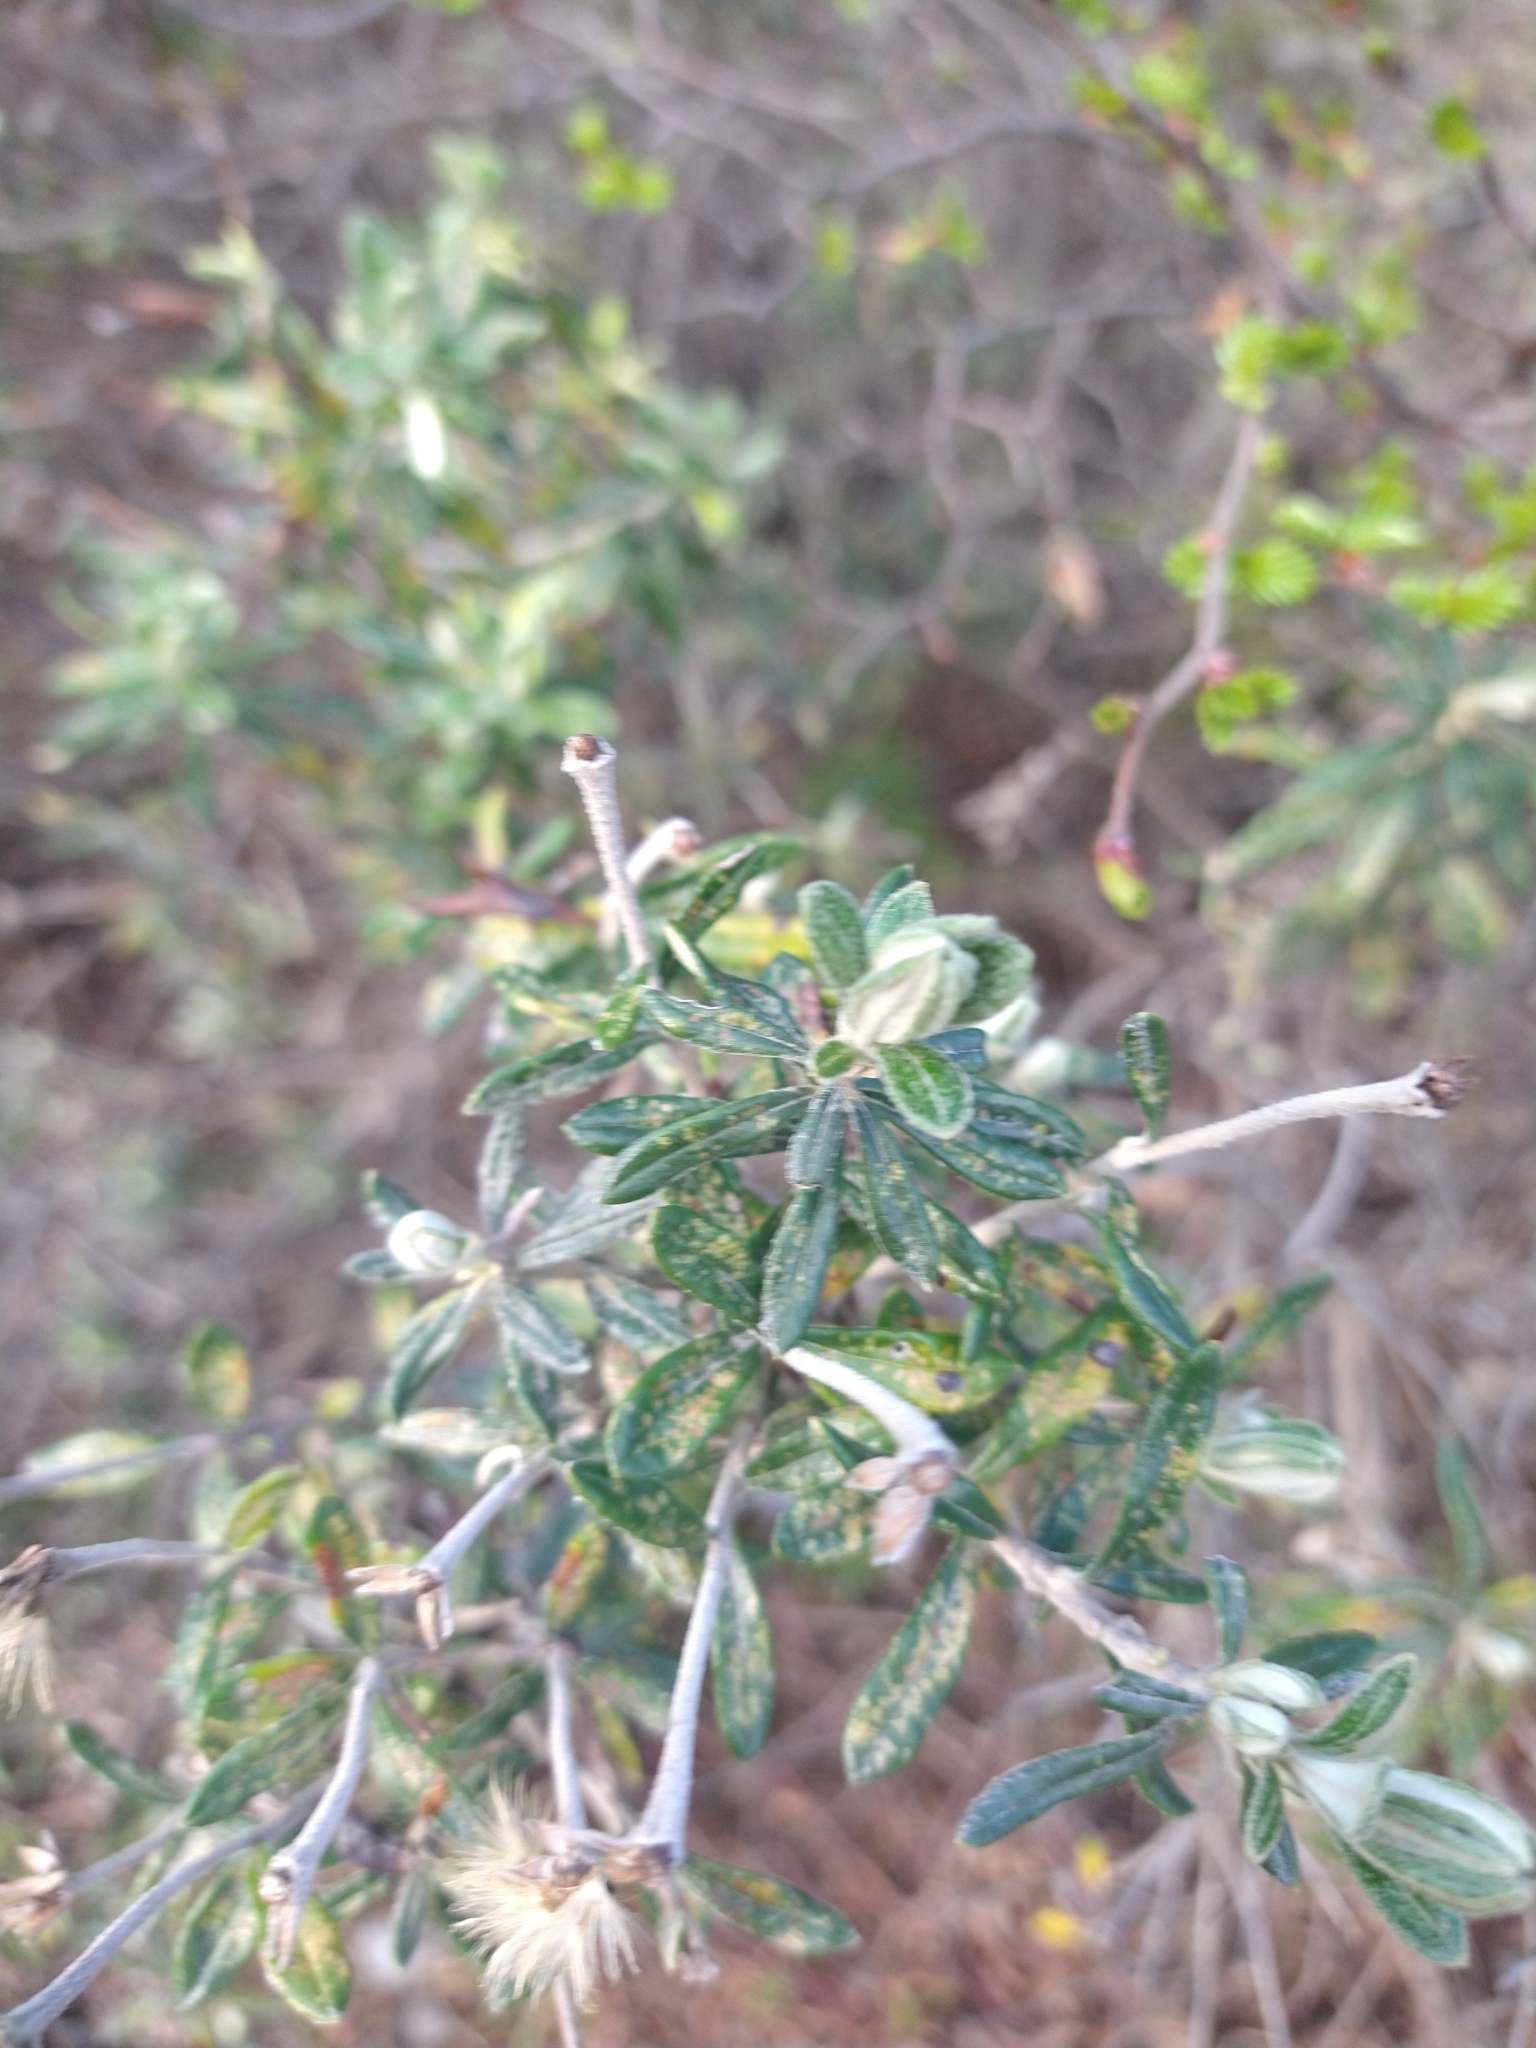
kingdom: Plantae
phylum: Tracheophyta
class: Magnoliopsida
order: Asterales
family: Asteraceae
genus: Chiliotrichum
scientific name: Chiliotrichum diffusum
